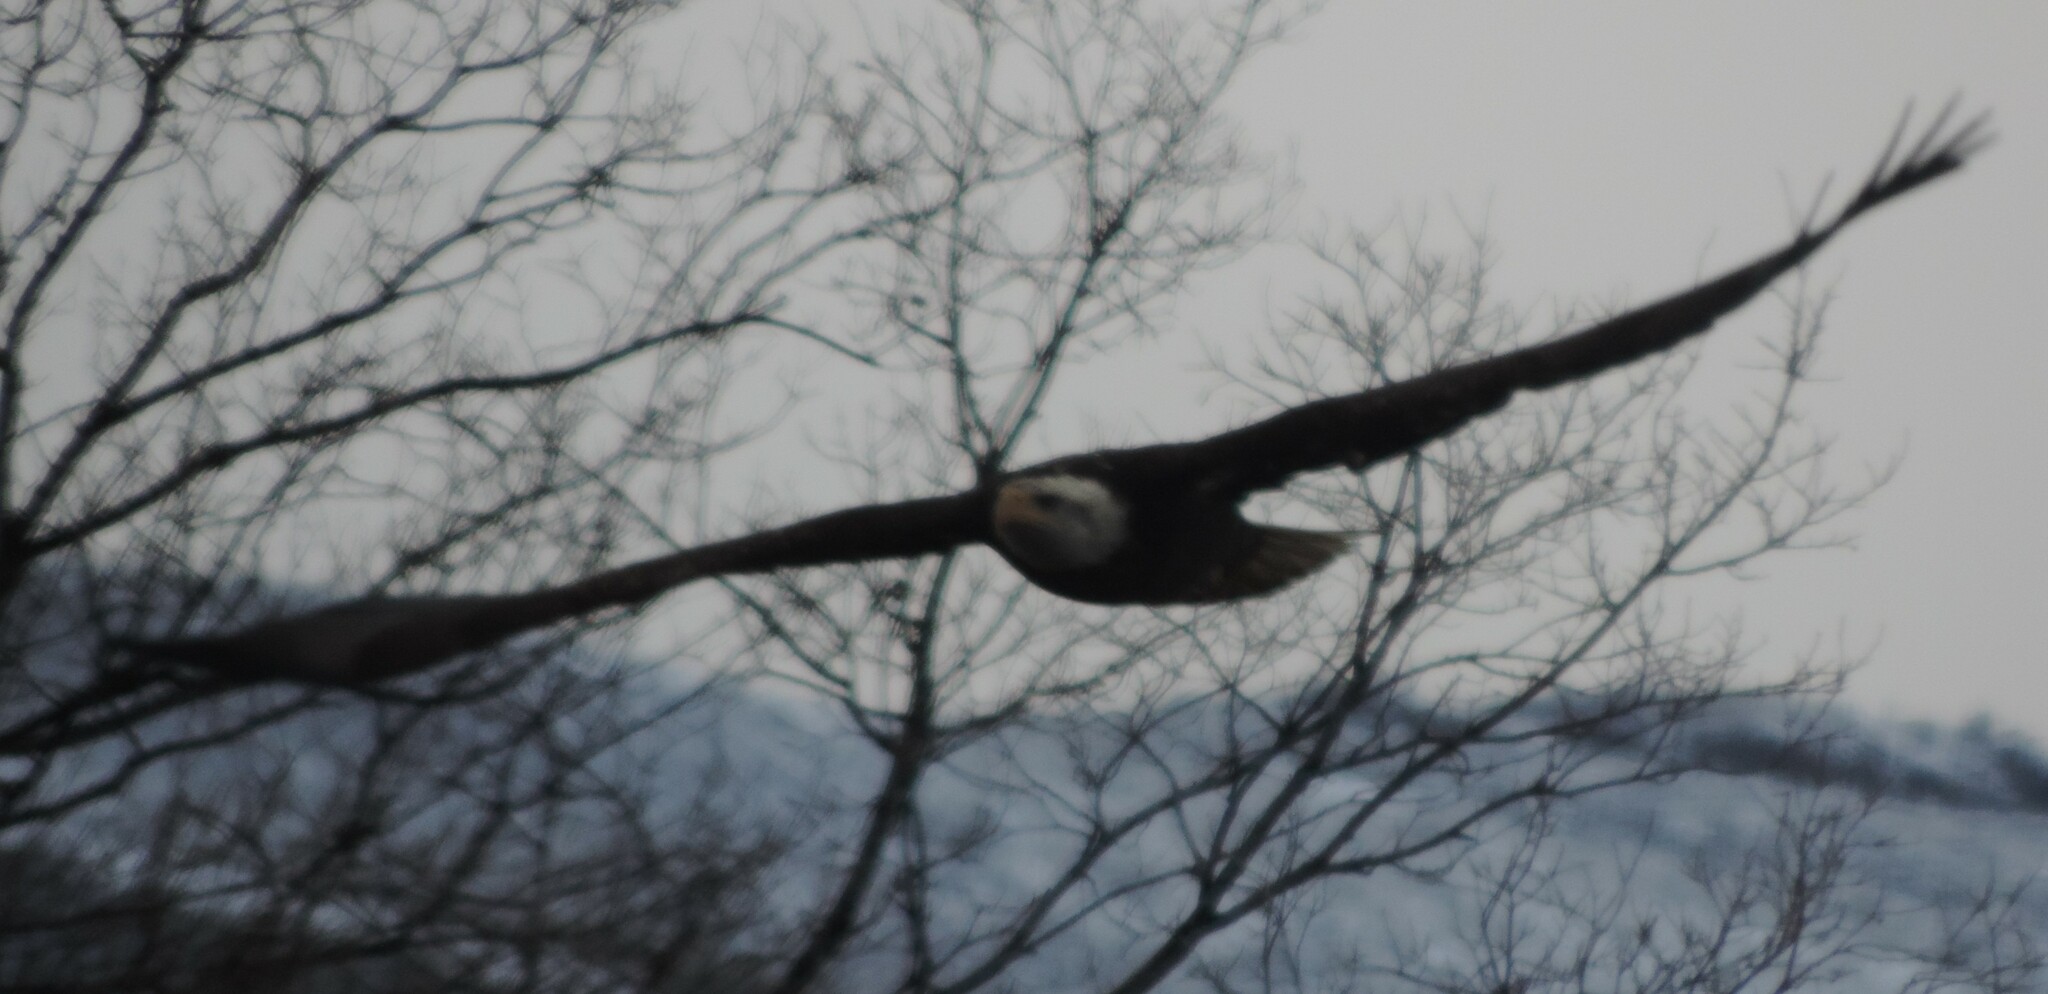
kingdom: Animalia
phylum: Chordata
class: Aves
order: Accipitriformes
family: Accipitridae
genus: Haliaeetus
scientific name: Haliaeetus leucocephalus
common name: Bald eagle
